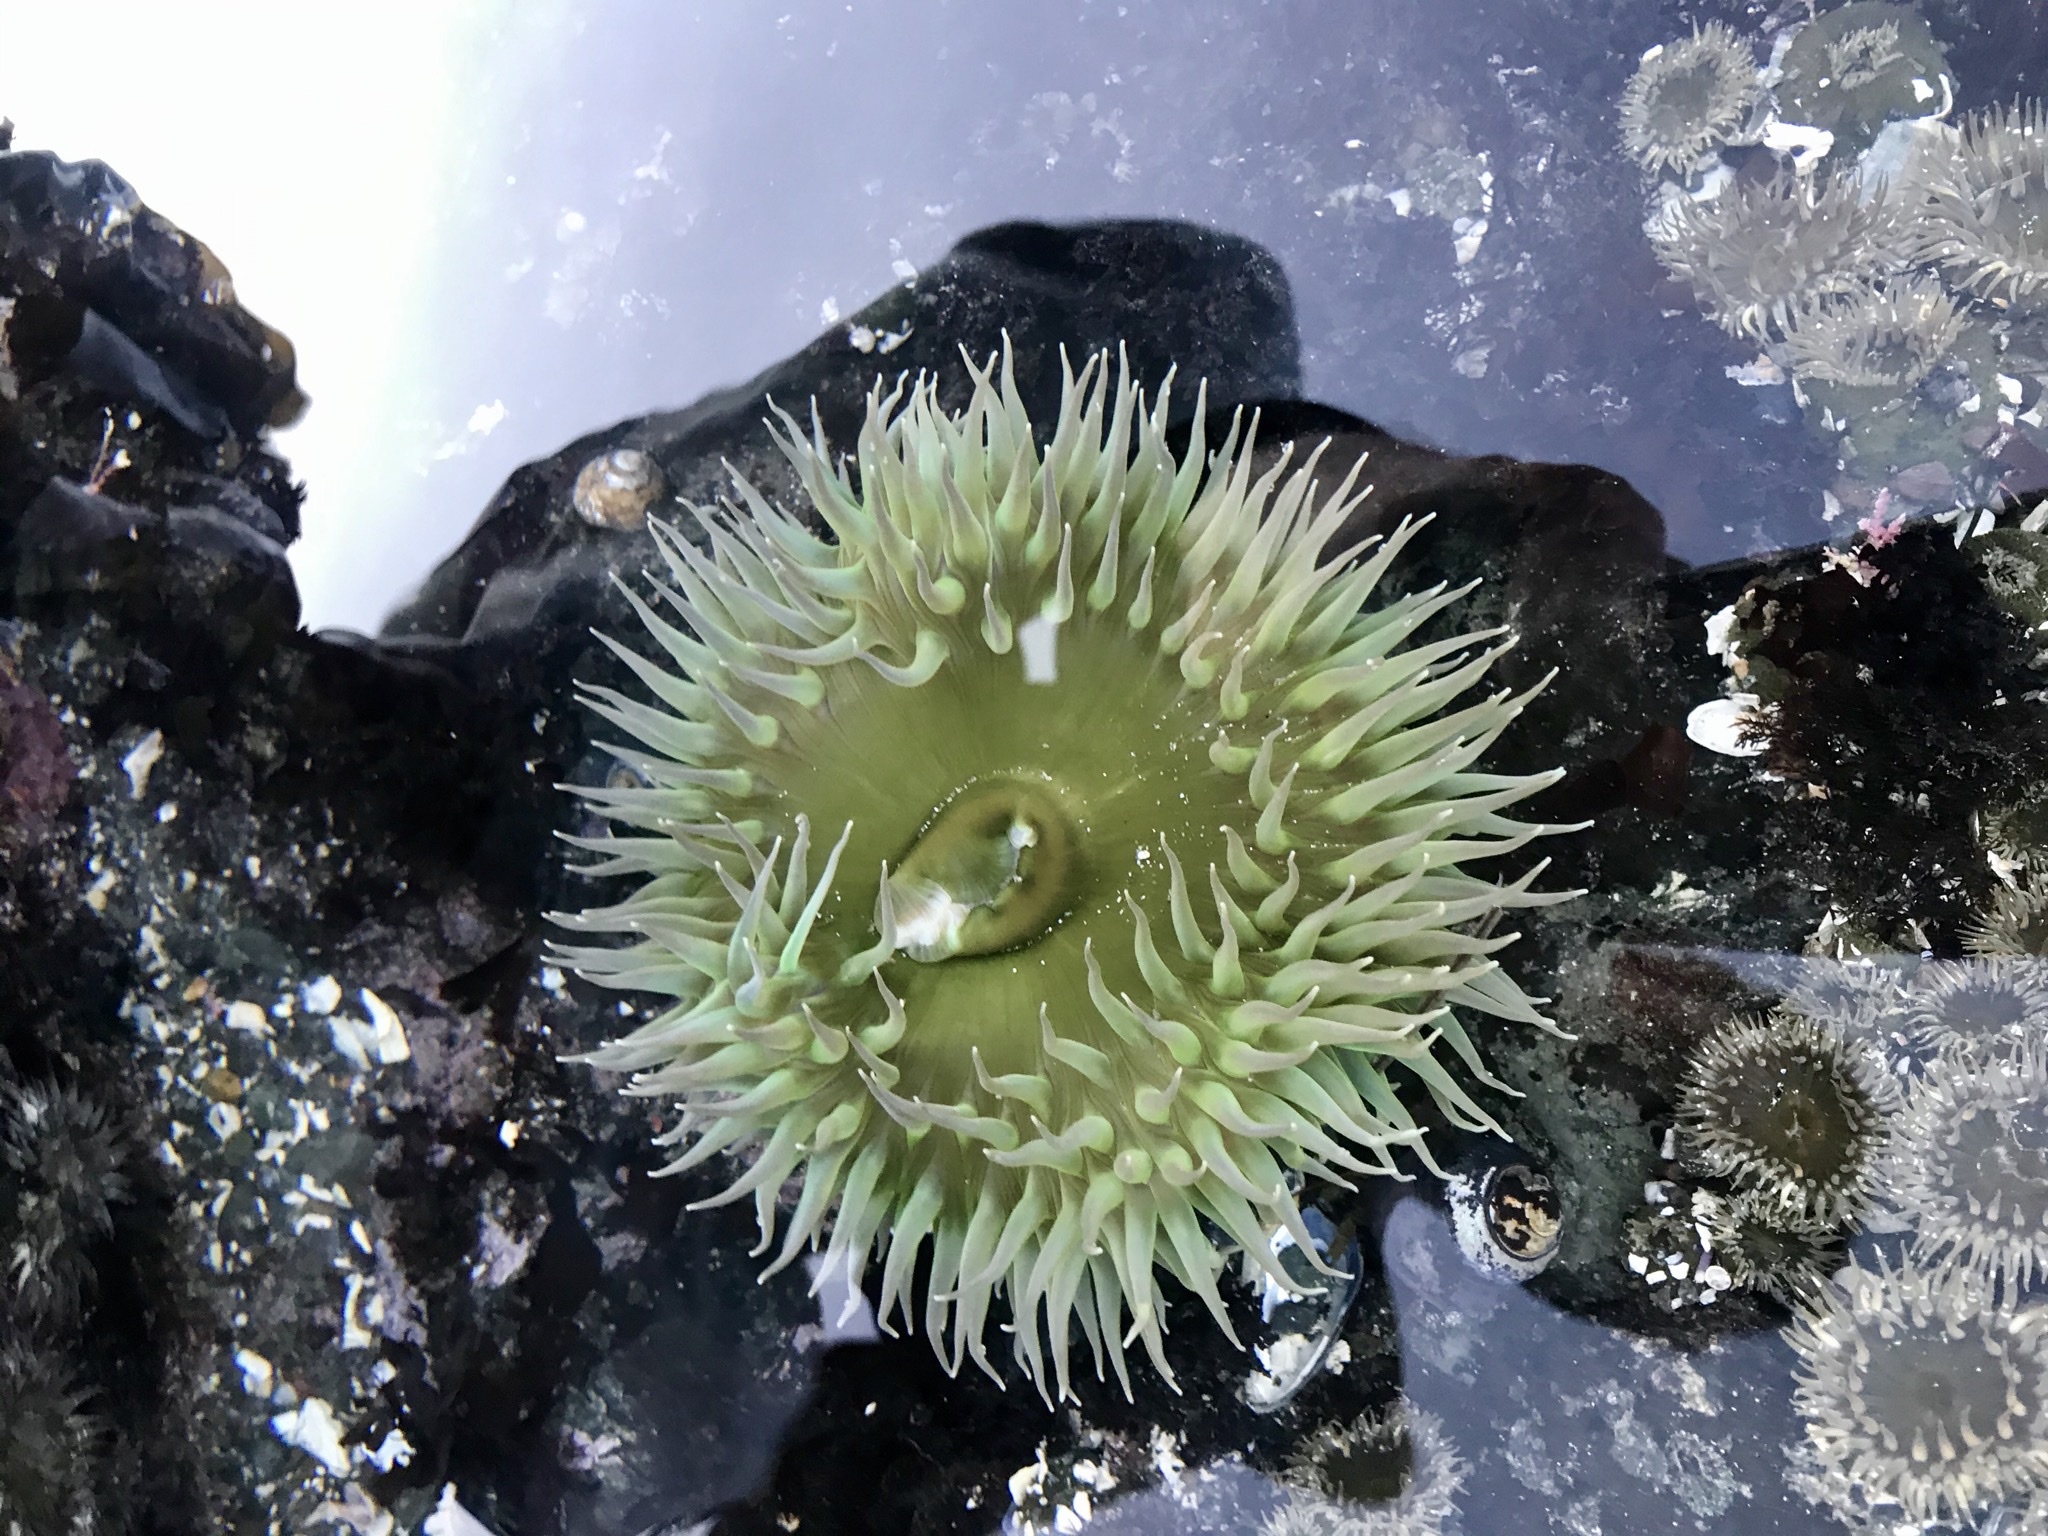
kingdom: Animalia
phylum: Cnidaria
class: Anthozoa
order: Actiniaria
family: Actiniidae
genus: Anthopleura
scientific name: Anthopleura xanthogrammica
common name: Giant green anemone
